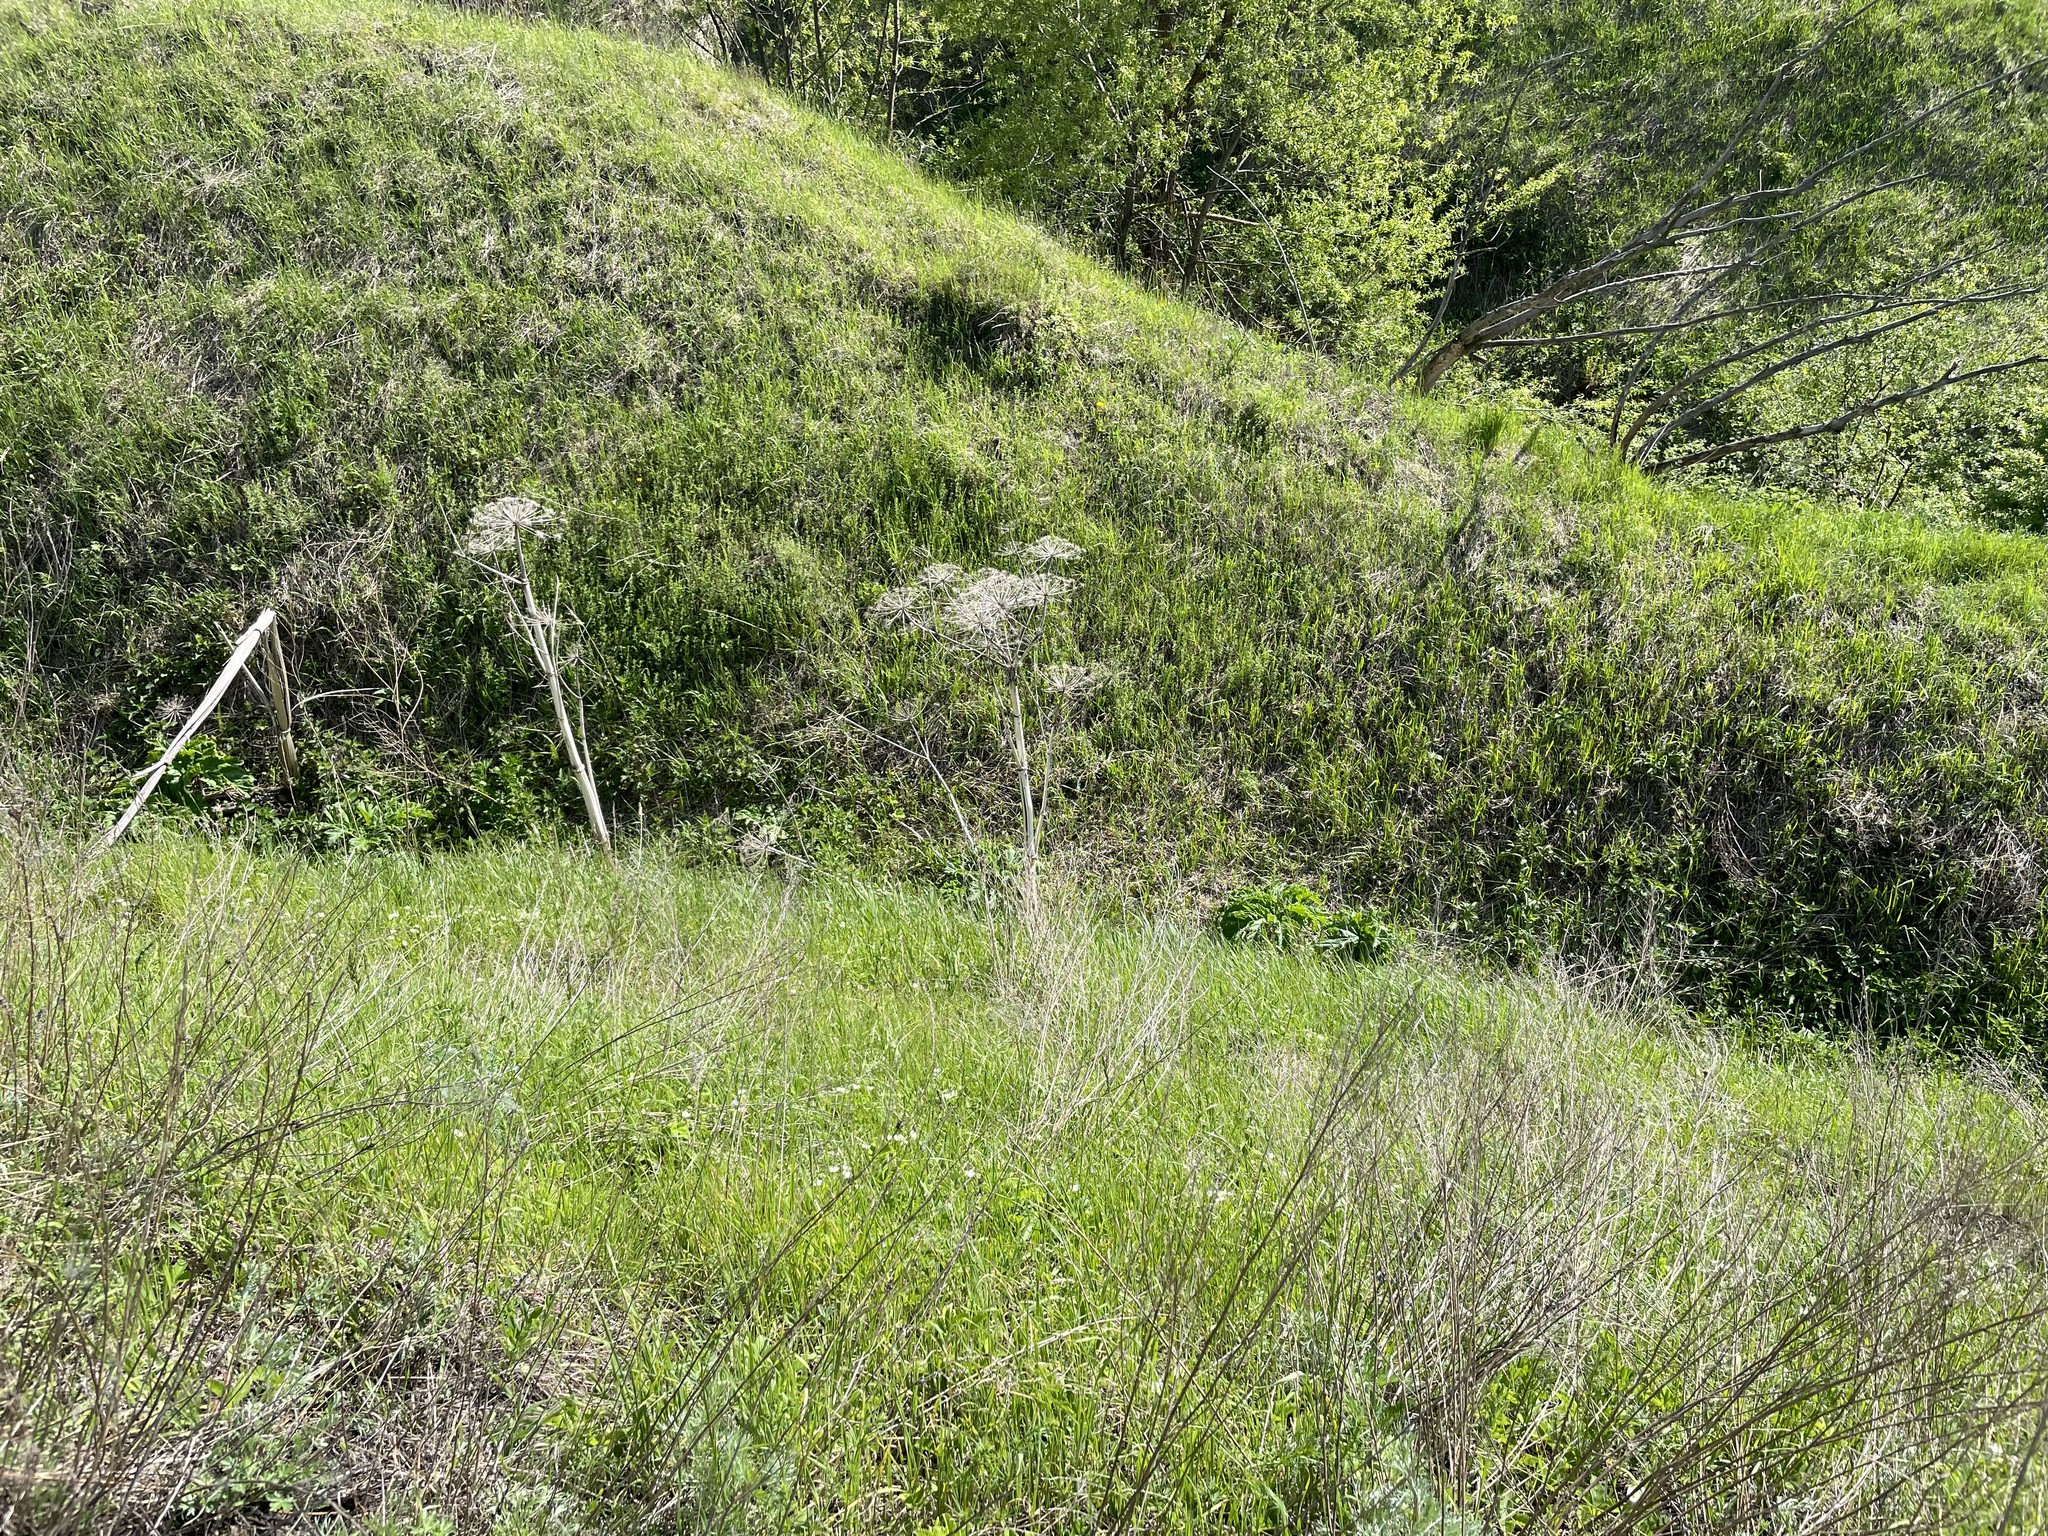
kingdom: Plantae
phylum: Tracheophyta
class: Magnoliopsida
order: Apiales
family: Apiaceae
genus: Heracleum
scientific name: Heracleum sosnowskyi
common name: Sosnowsky's hogweed
